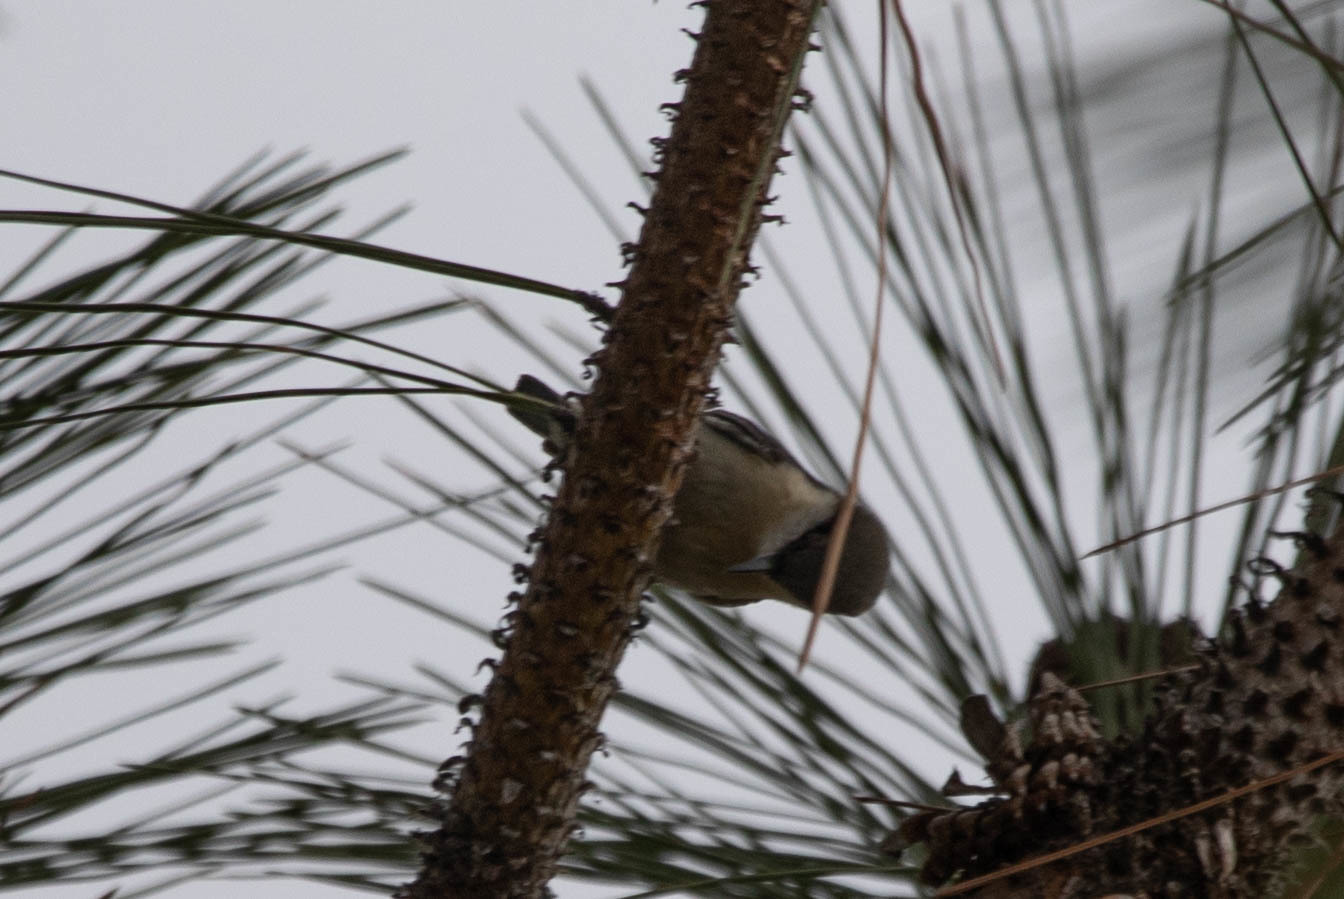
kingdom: Animalia
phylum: Chordata
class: Aves
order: Passeriformes
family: Sittidae
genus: Sitta
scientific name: Sitta pygmaea
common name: Pygmy nuthatch
